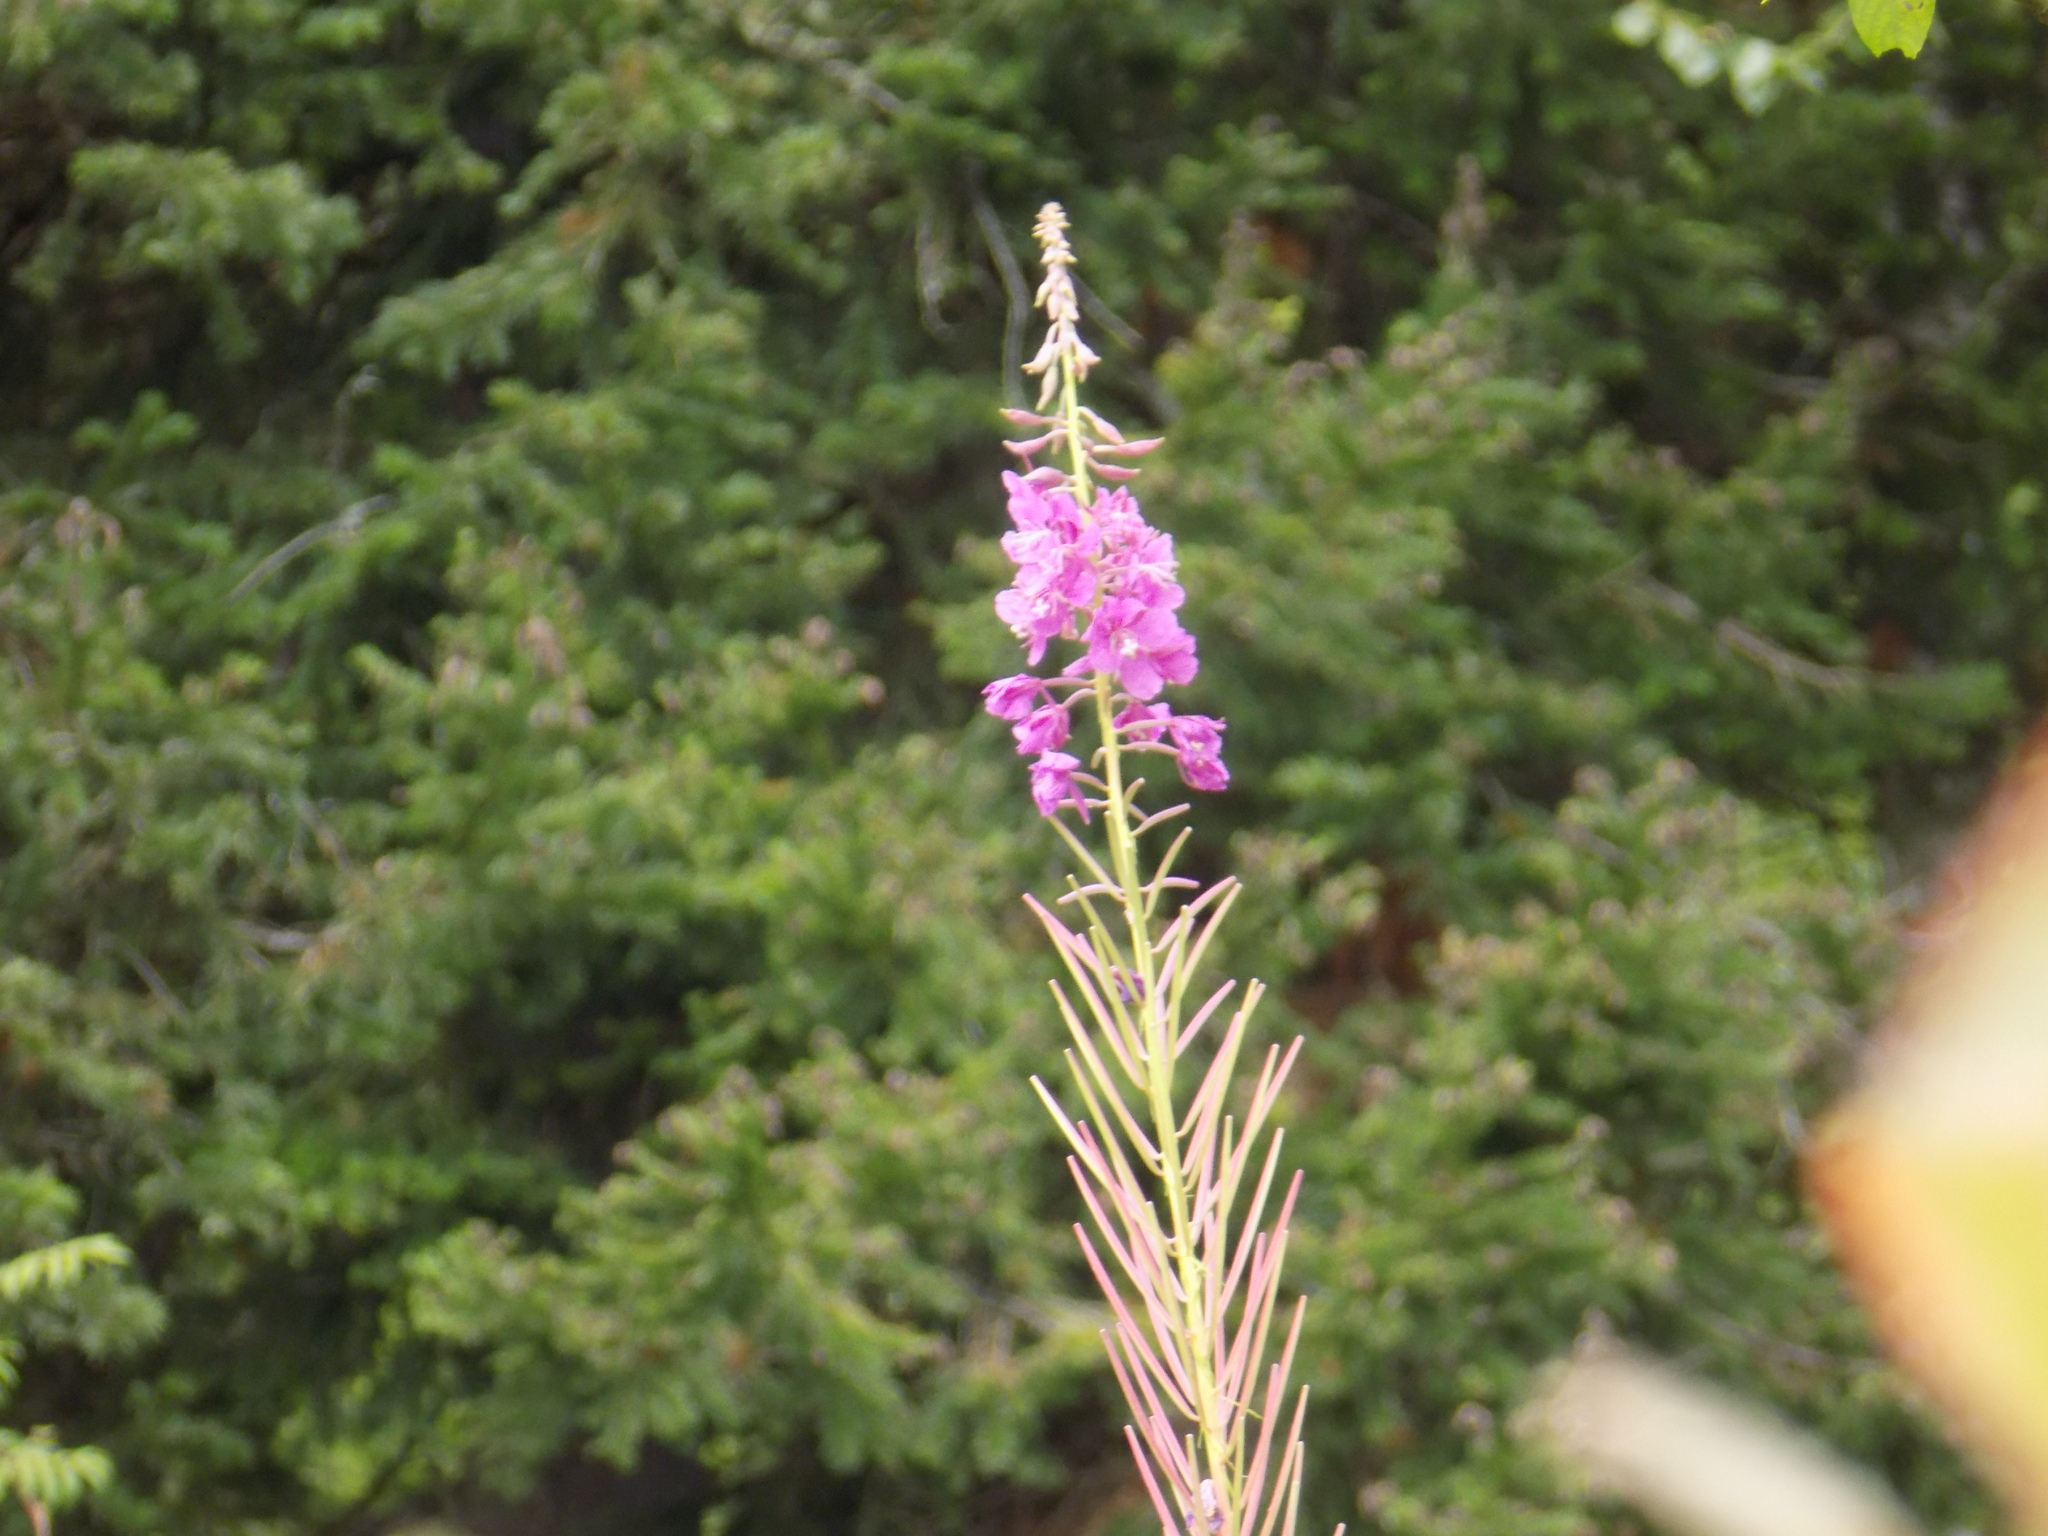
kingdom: Plantae
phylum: Tracheophyta
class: Magnoliopsida
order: Myrtales
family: Onagraceae
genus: Chamaenerion
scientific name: Chamaenerion angustifolium
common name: Fireweed
